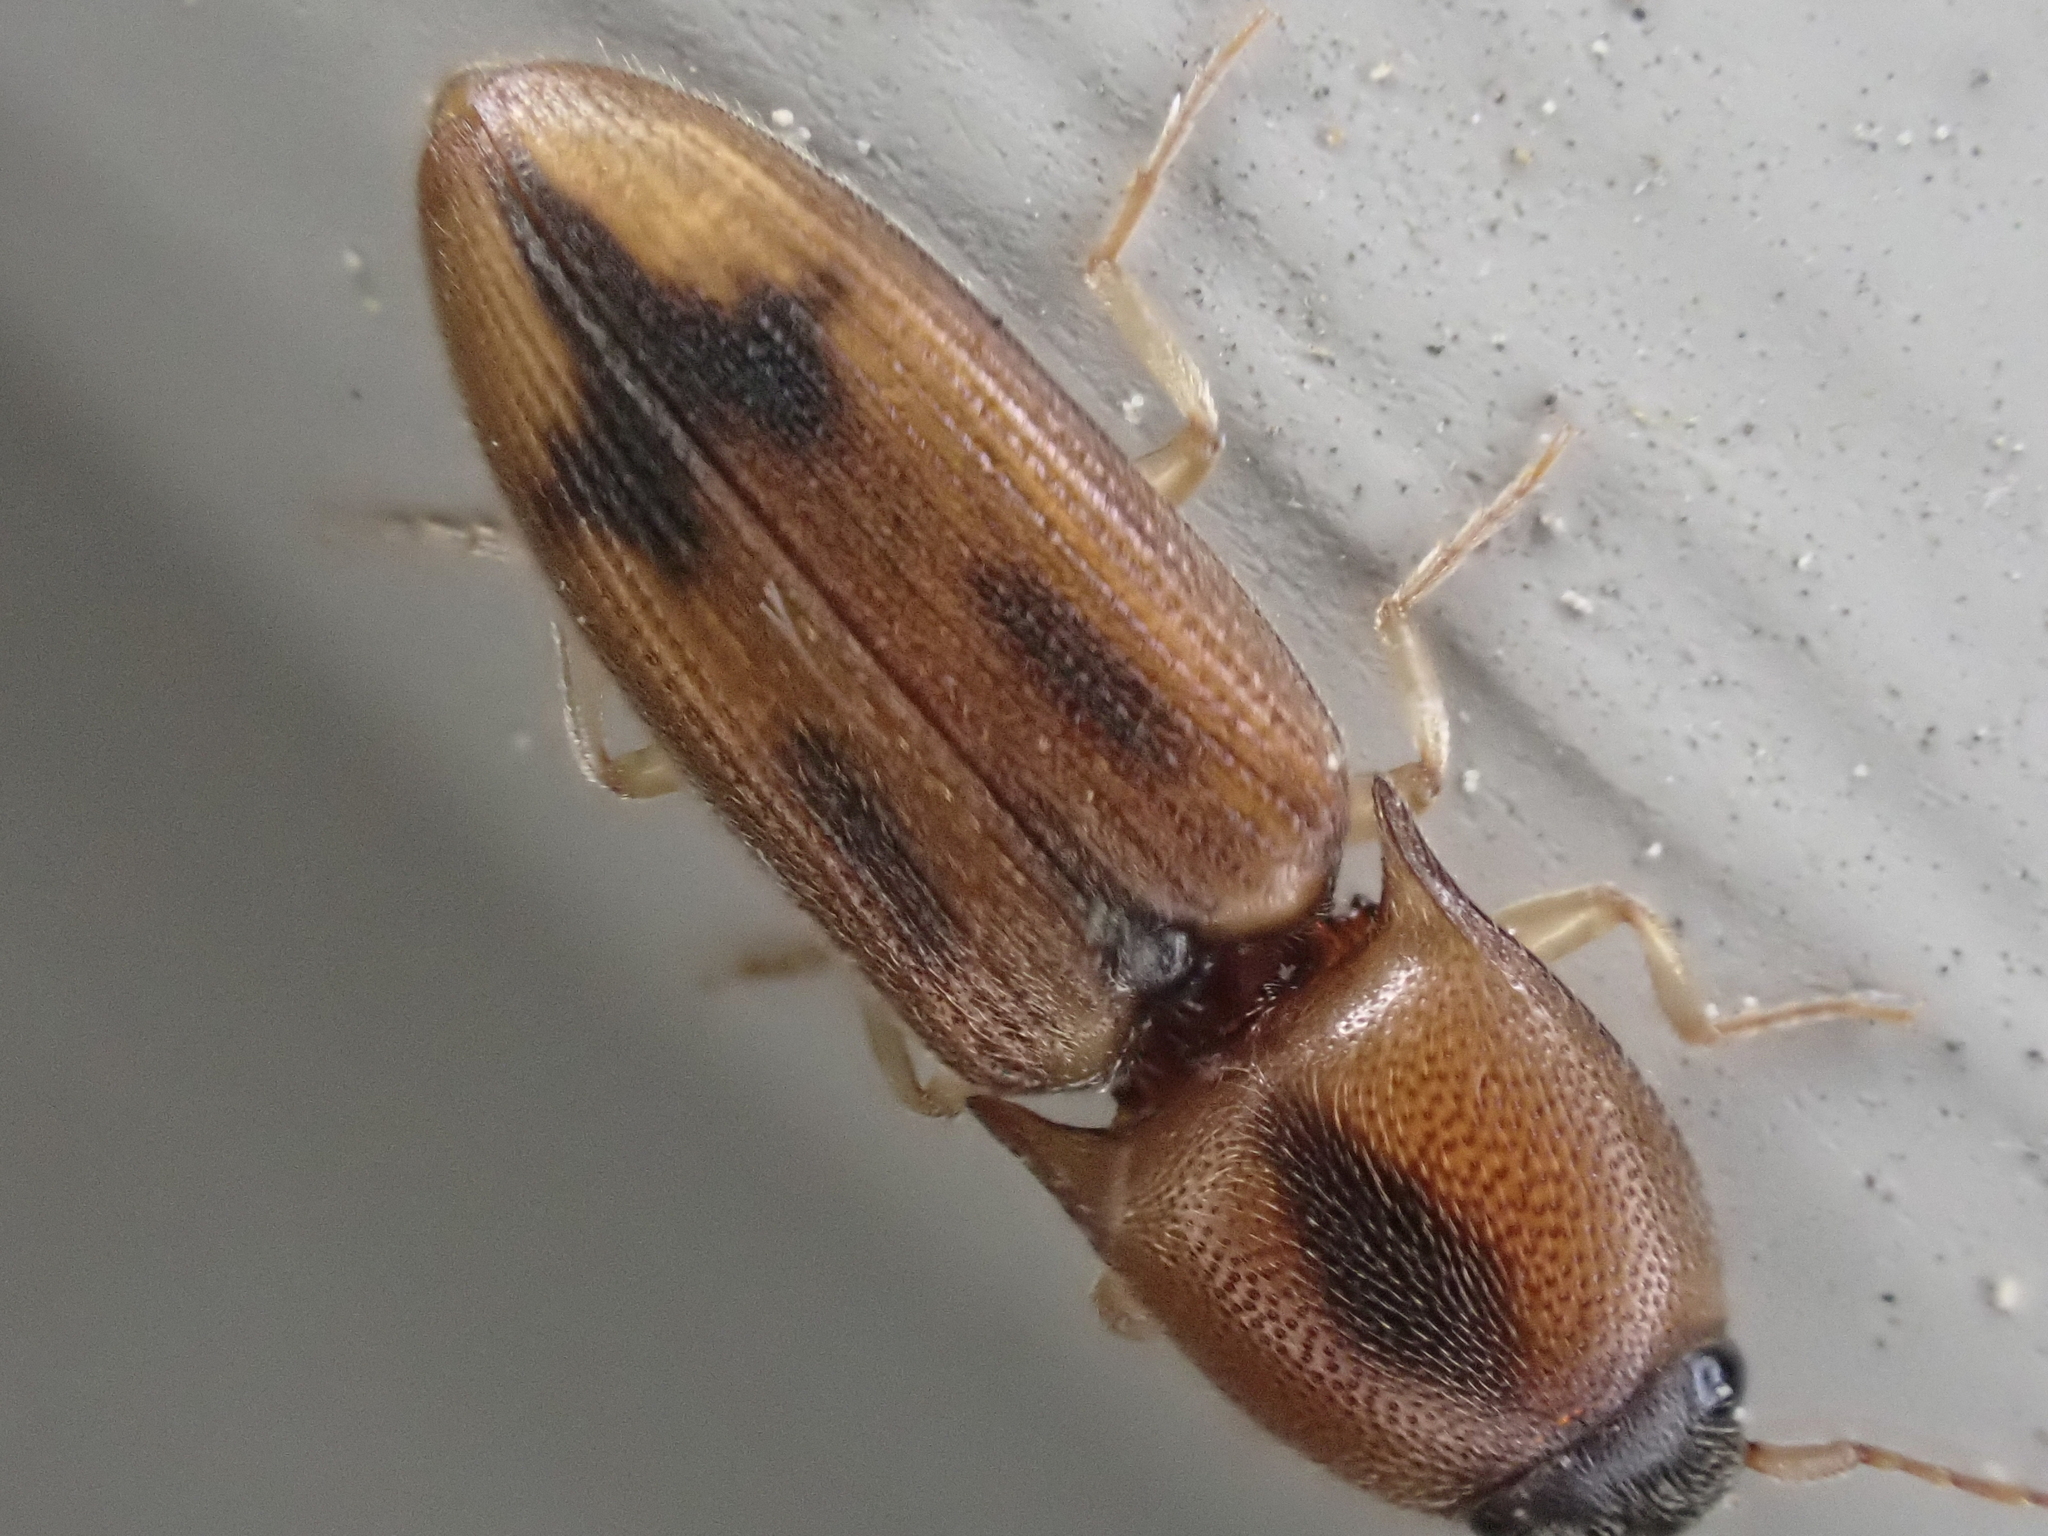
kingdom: Animalia
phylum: Arthropoda
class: Insecta
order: Coleoptera
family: Elateridae
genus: Aeolus
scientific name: Aeolus mellillus
